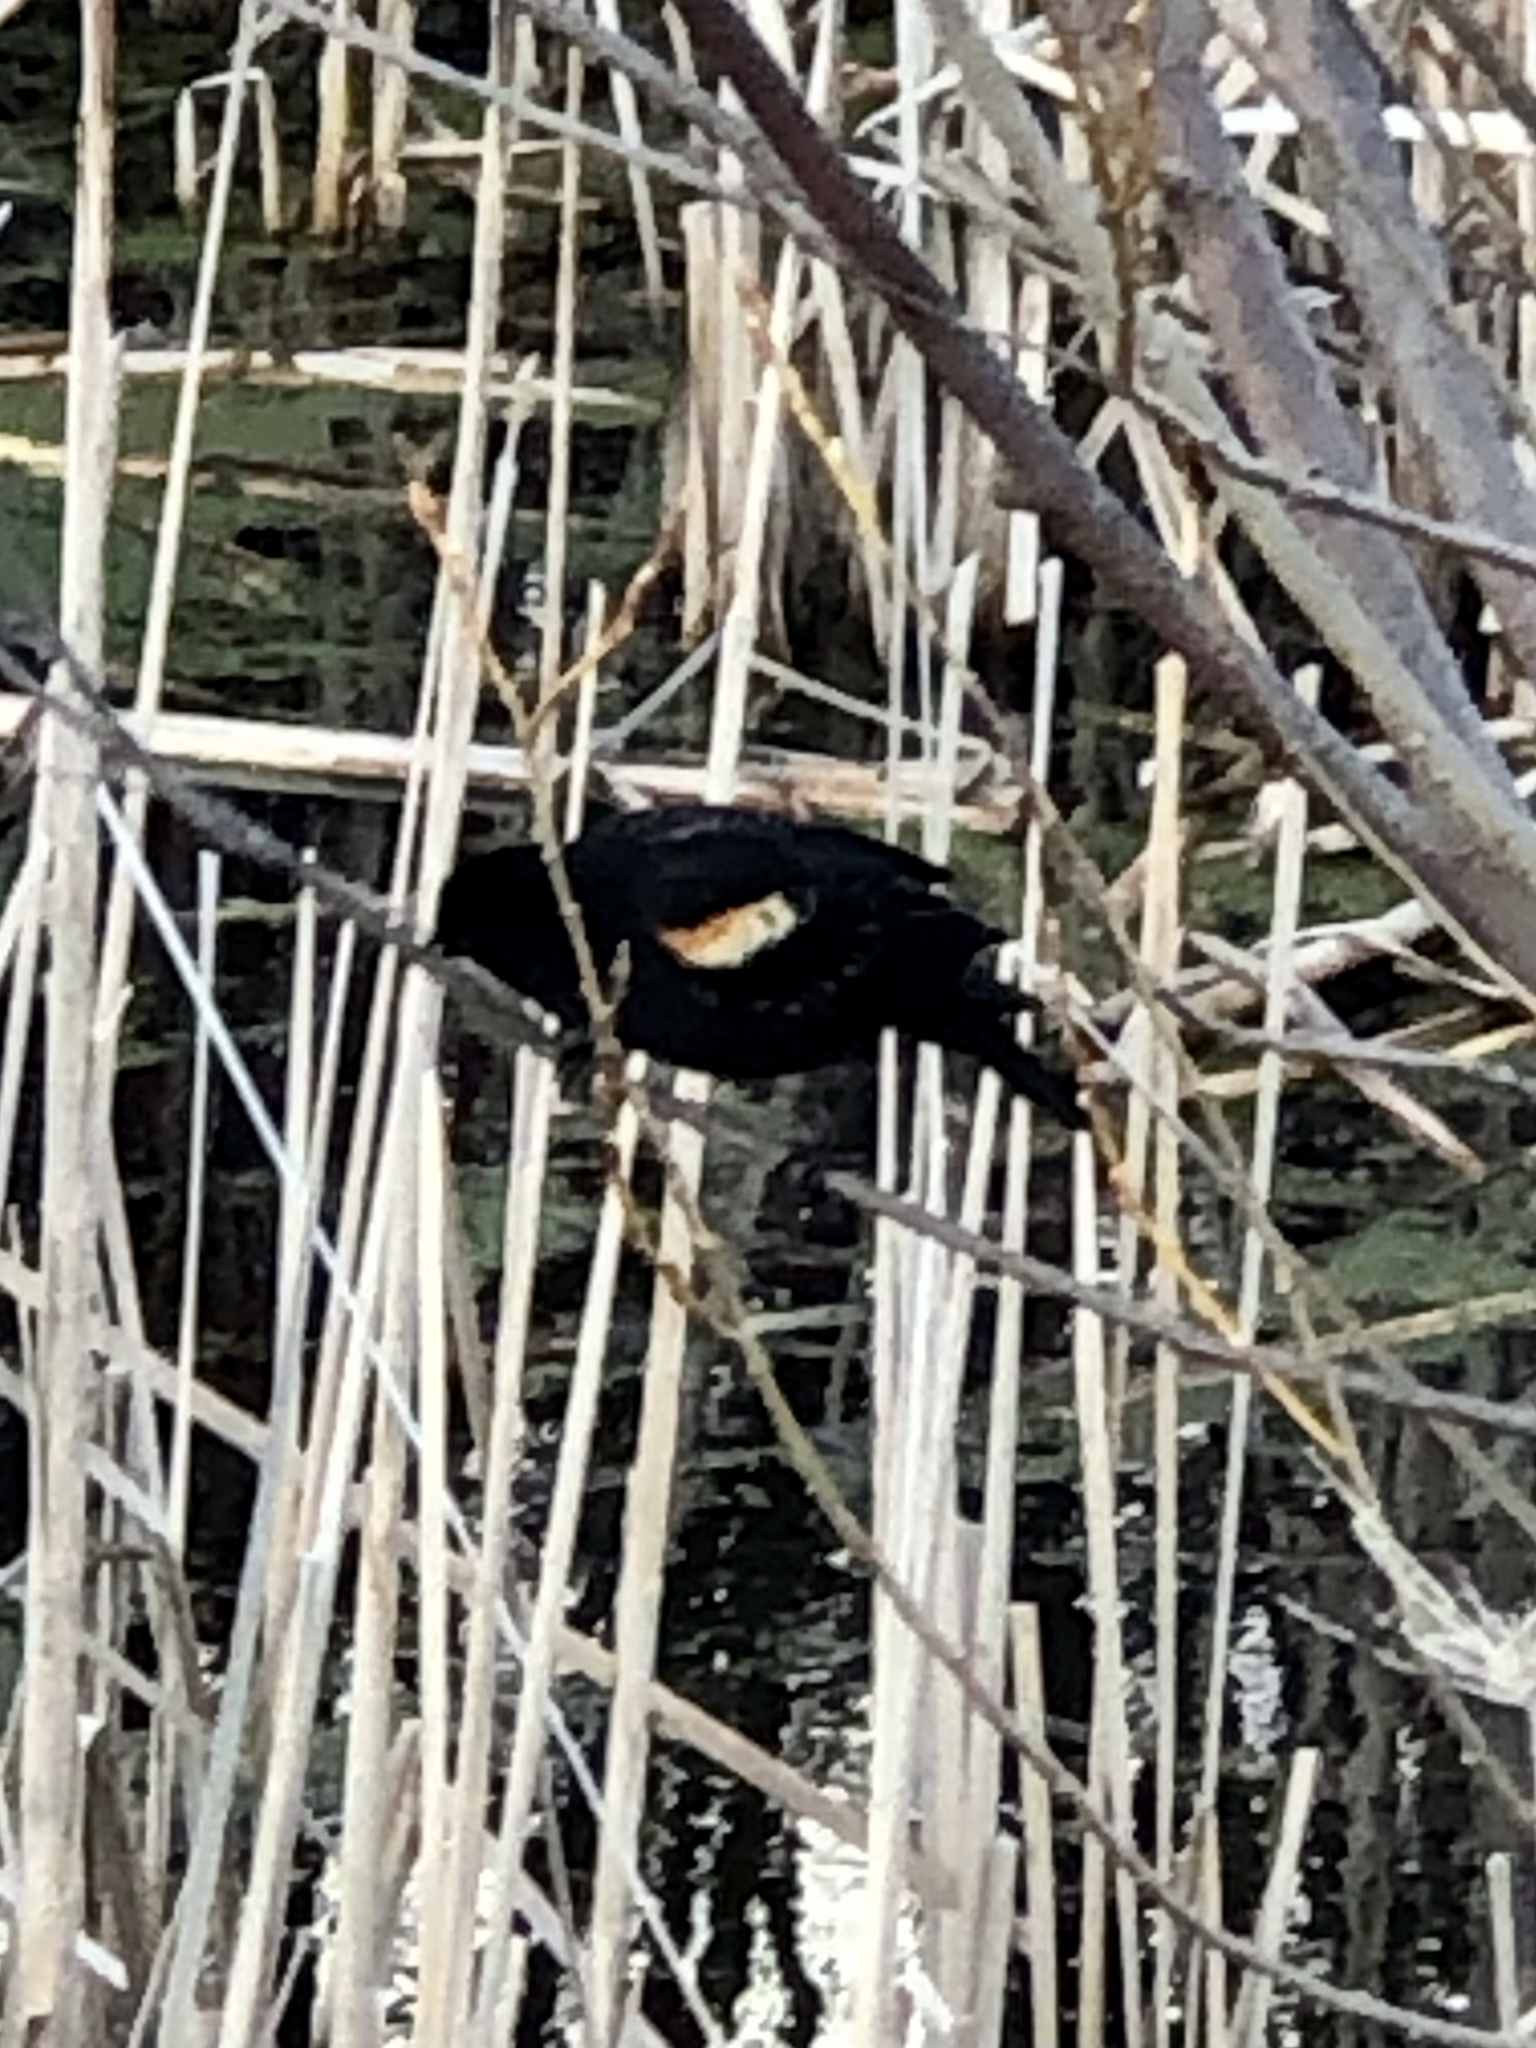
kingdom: Animalia
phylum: Chordata
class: Aves
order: Passeriformes
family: Icteridae
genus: Agelaius
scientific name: Agelaius phoeniceus
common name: Red-winged blackbird
